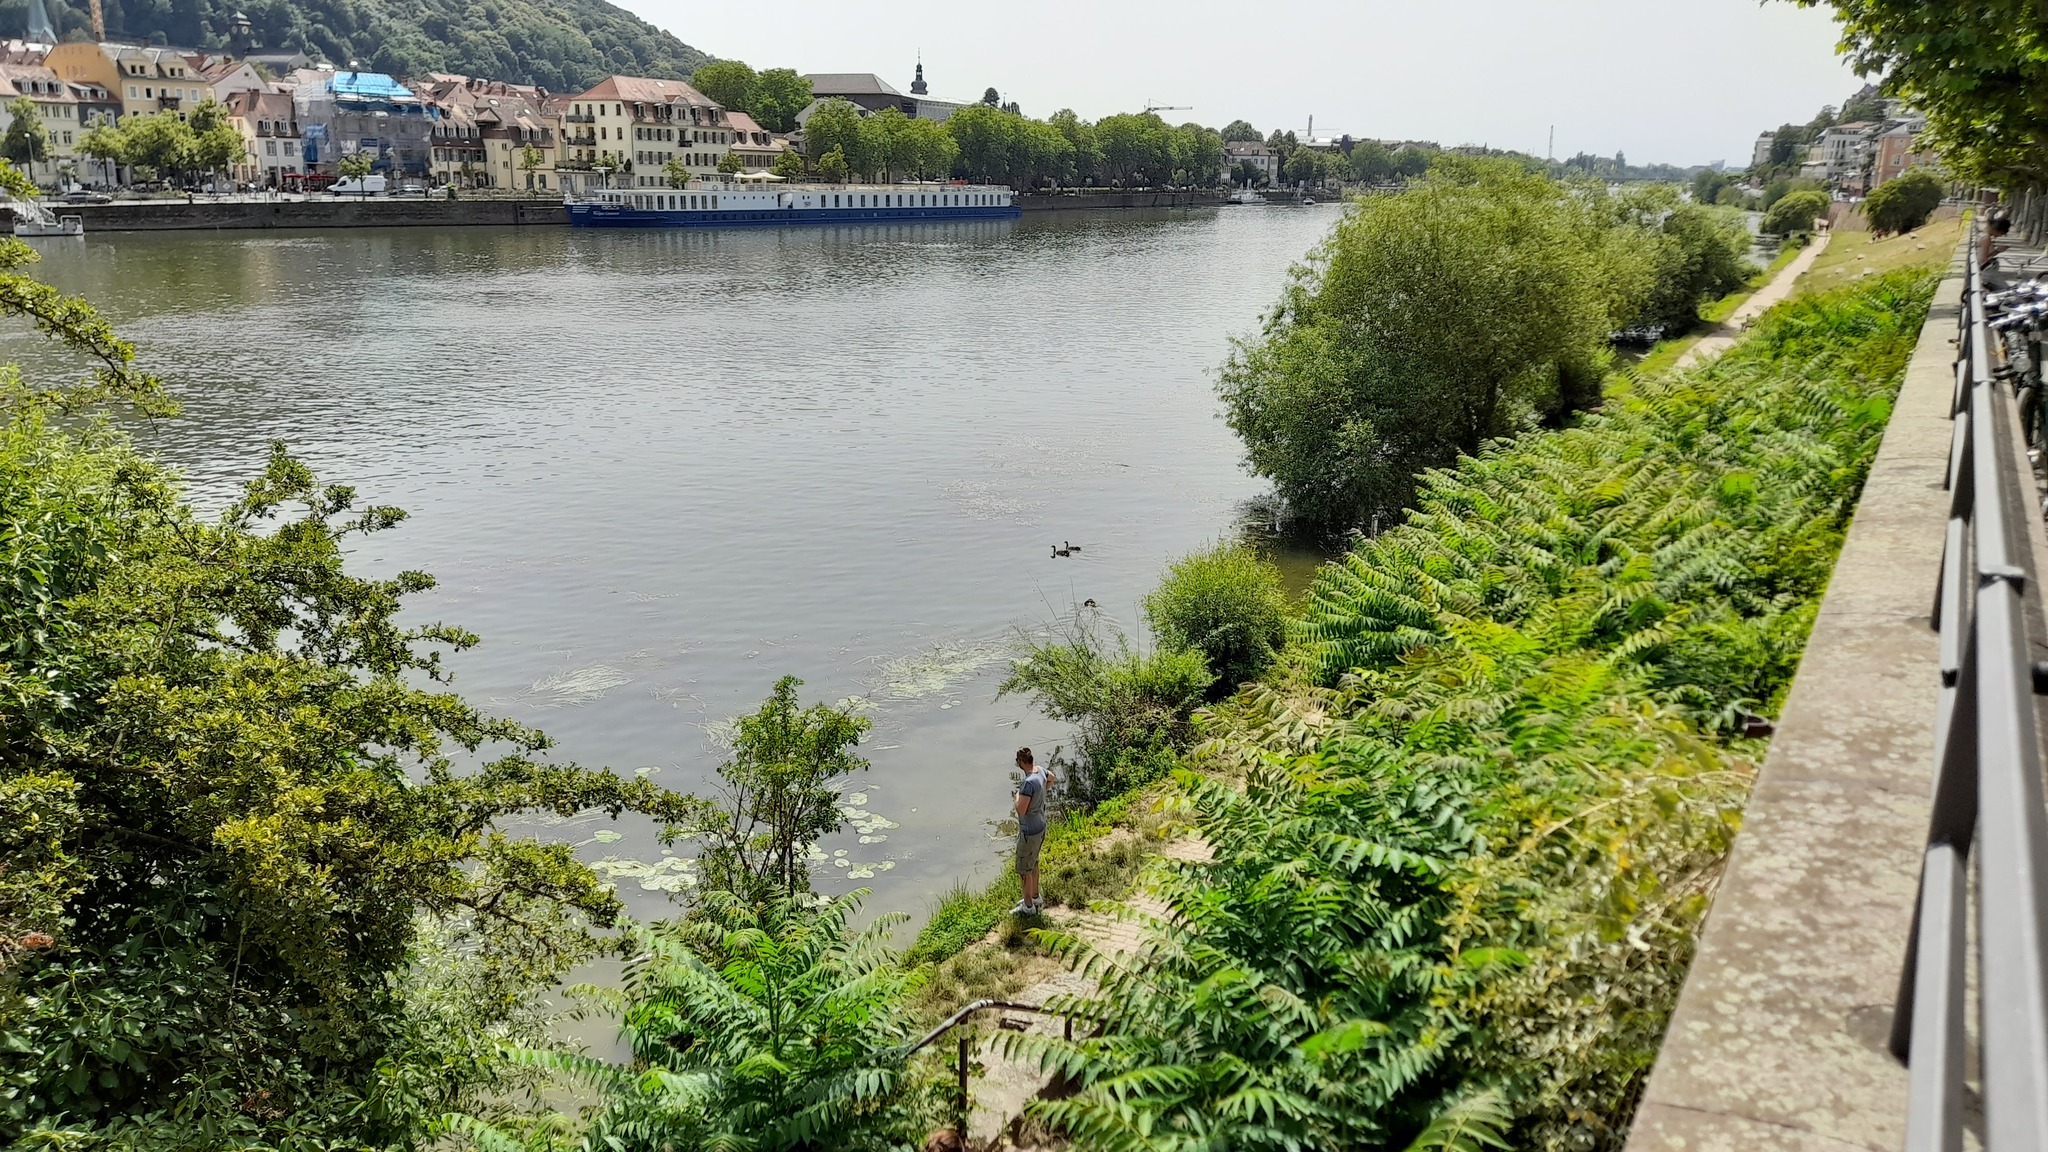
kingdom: Animalia
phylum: Chordata
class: Aves
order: Anseriformes
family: Anatidae
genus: Alopochen
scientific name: Alopochen aegyptiaca
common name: Egyptian goose
